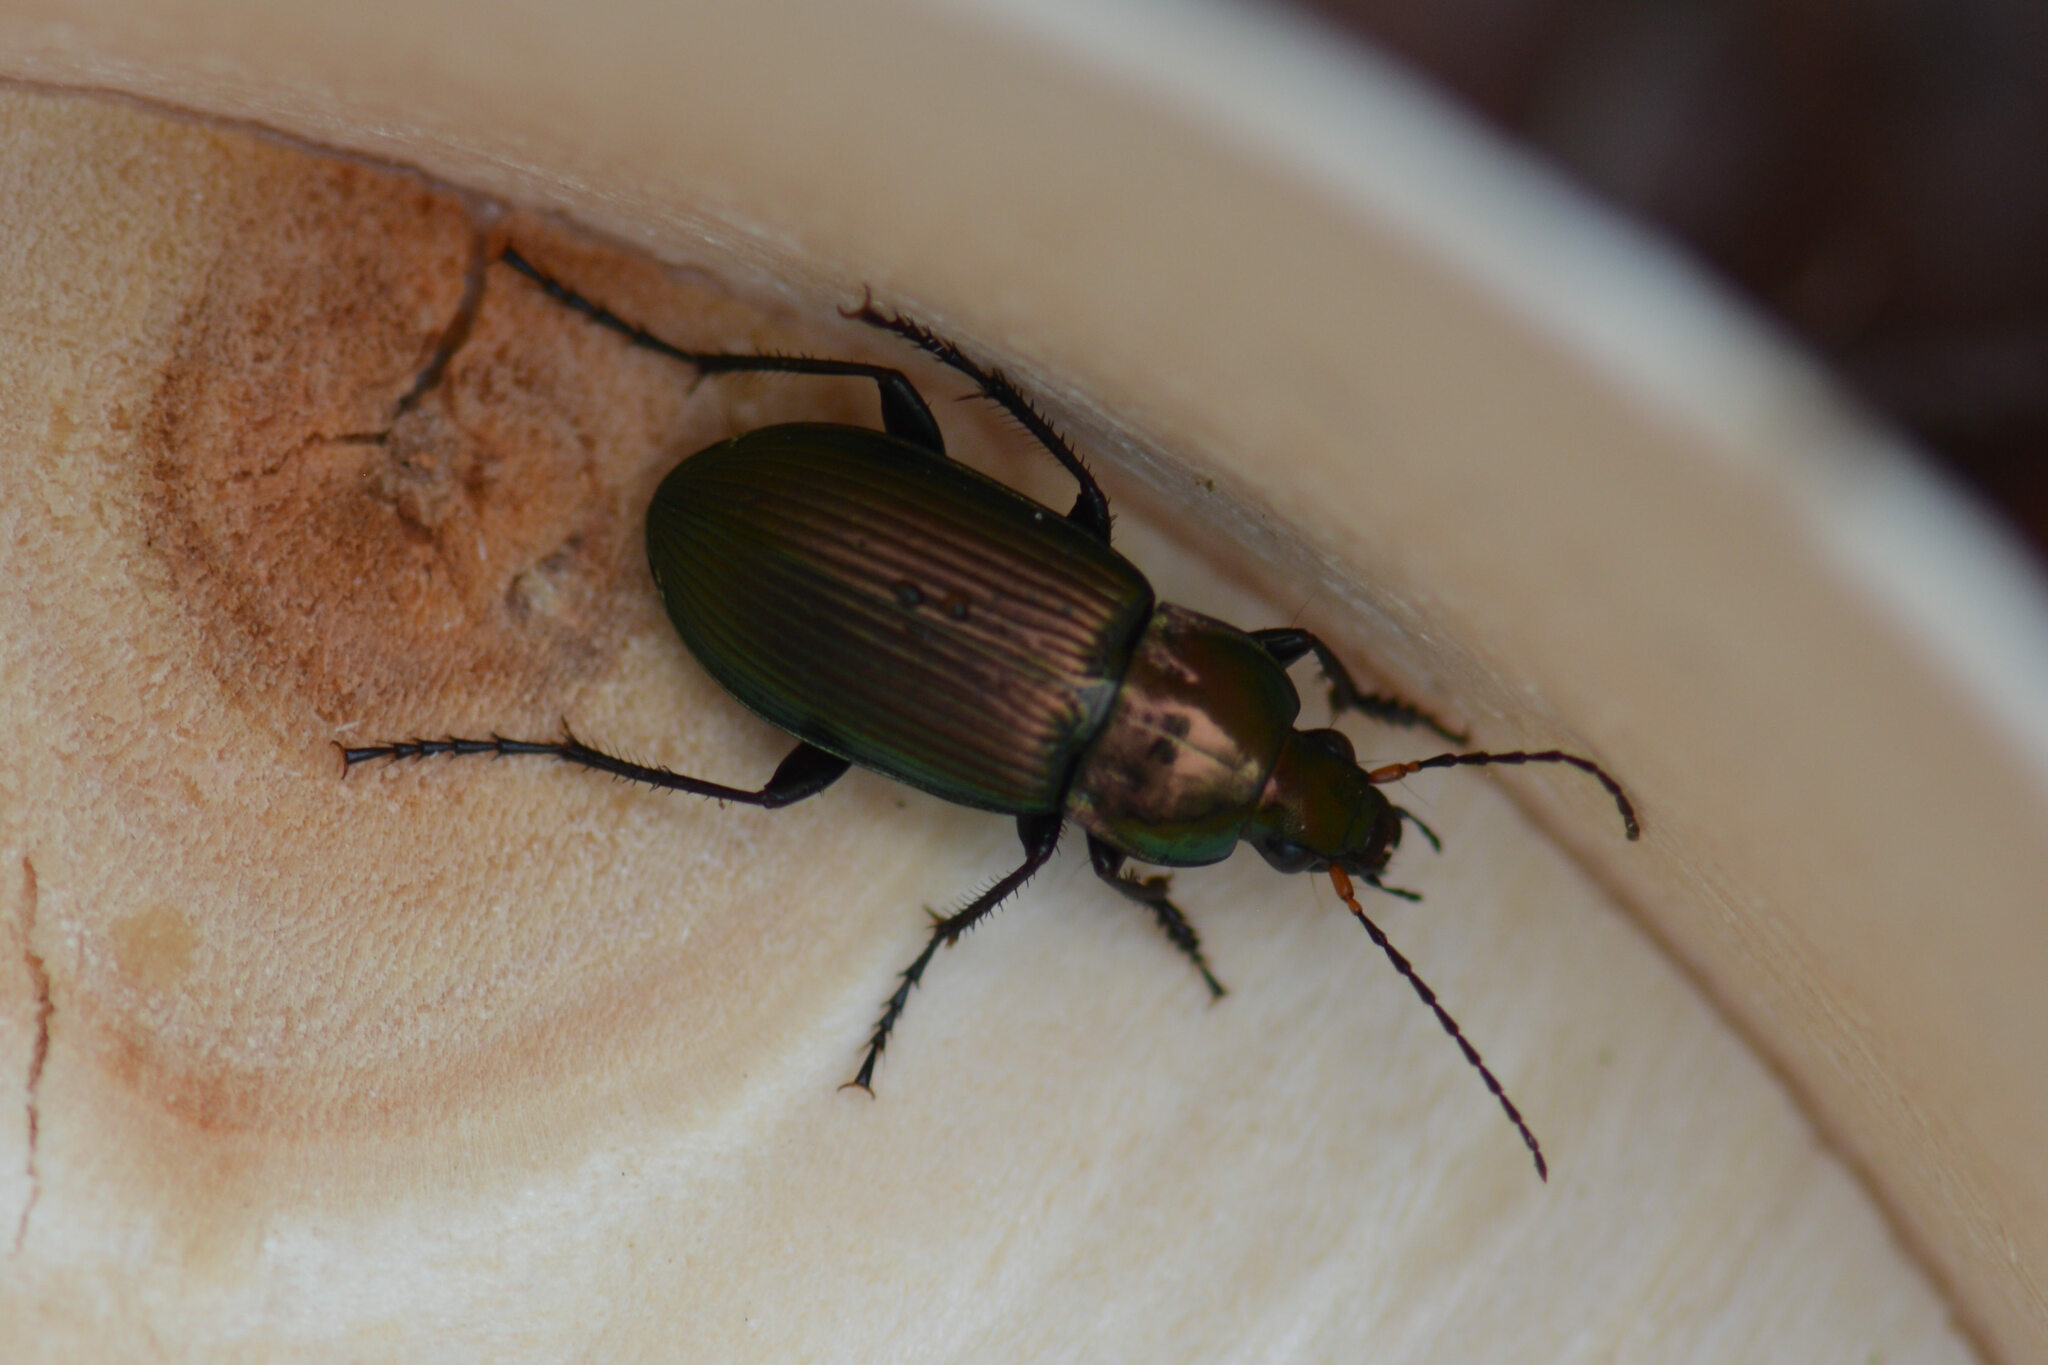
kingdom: Animalia
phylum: Arthropoda
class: Insecta
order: Coleoptera
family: Carabidae
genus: Poecilus
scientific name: Poecilus cupreus
